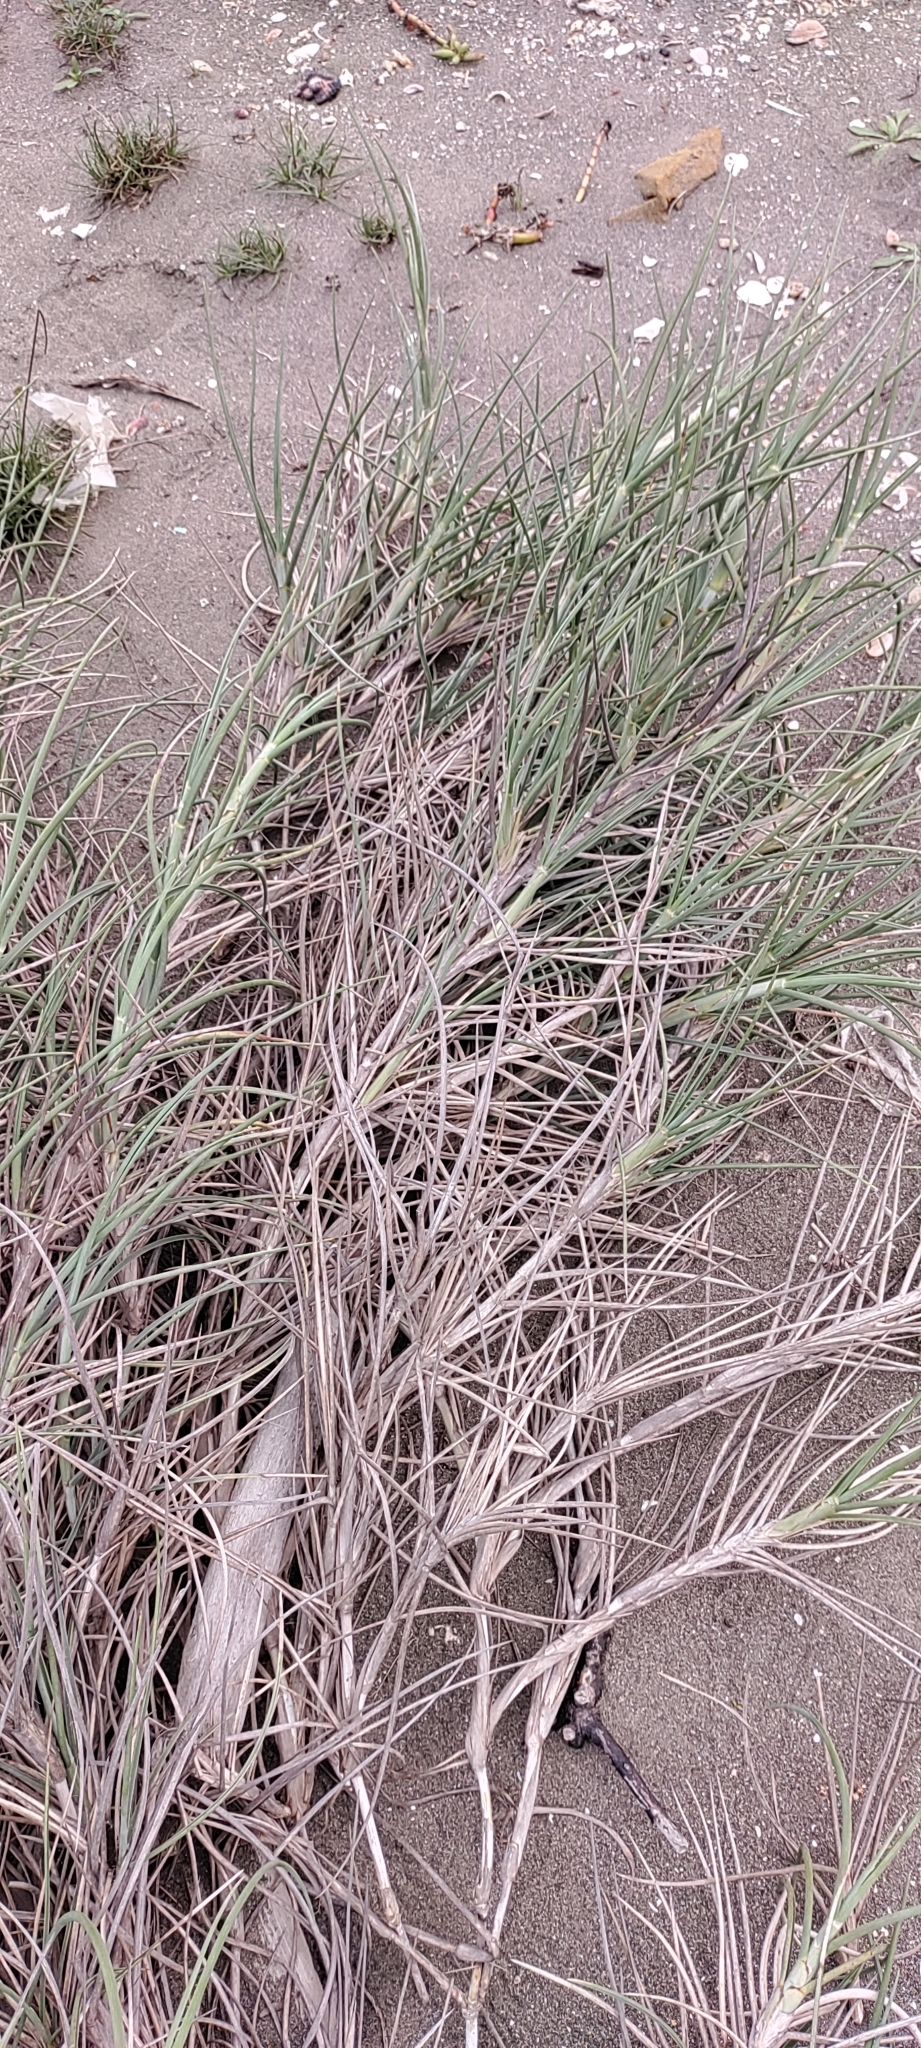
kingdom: Plantae
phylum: Tracheophyta
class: Liliopsida
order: Poales
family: Poaceae
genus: Spinifex
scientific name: Spinifex littoreus
